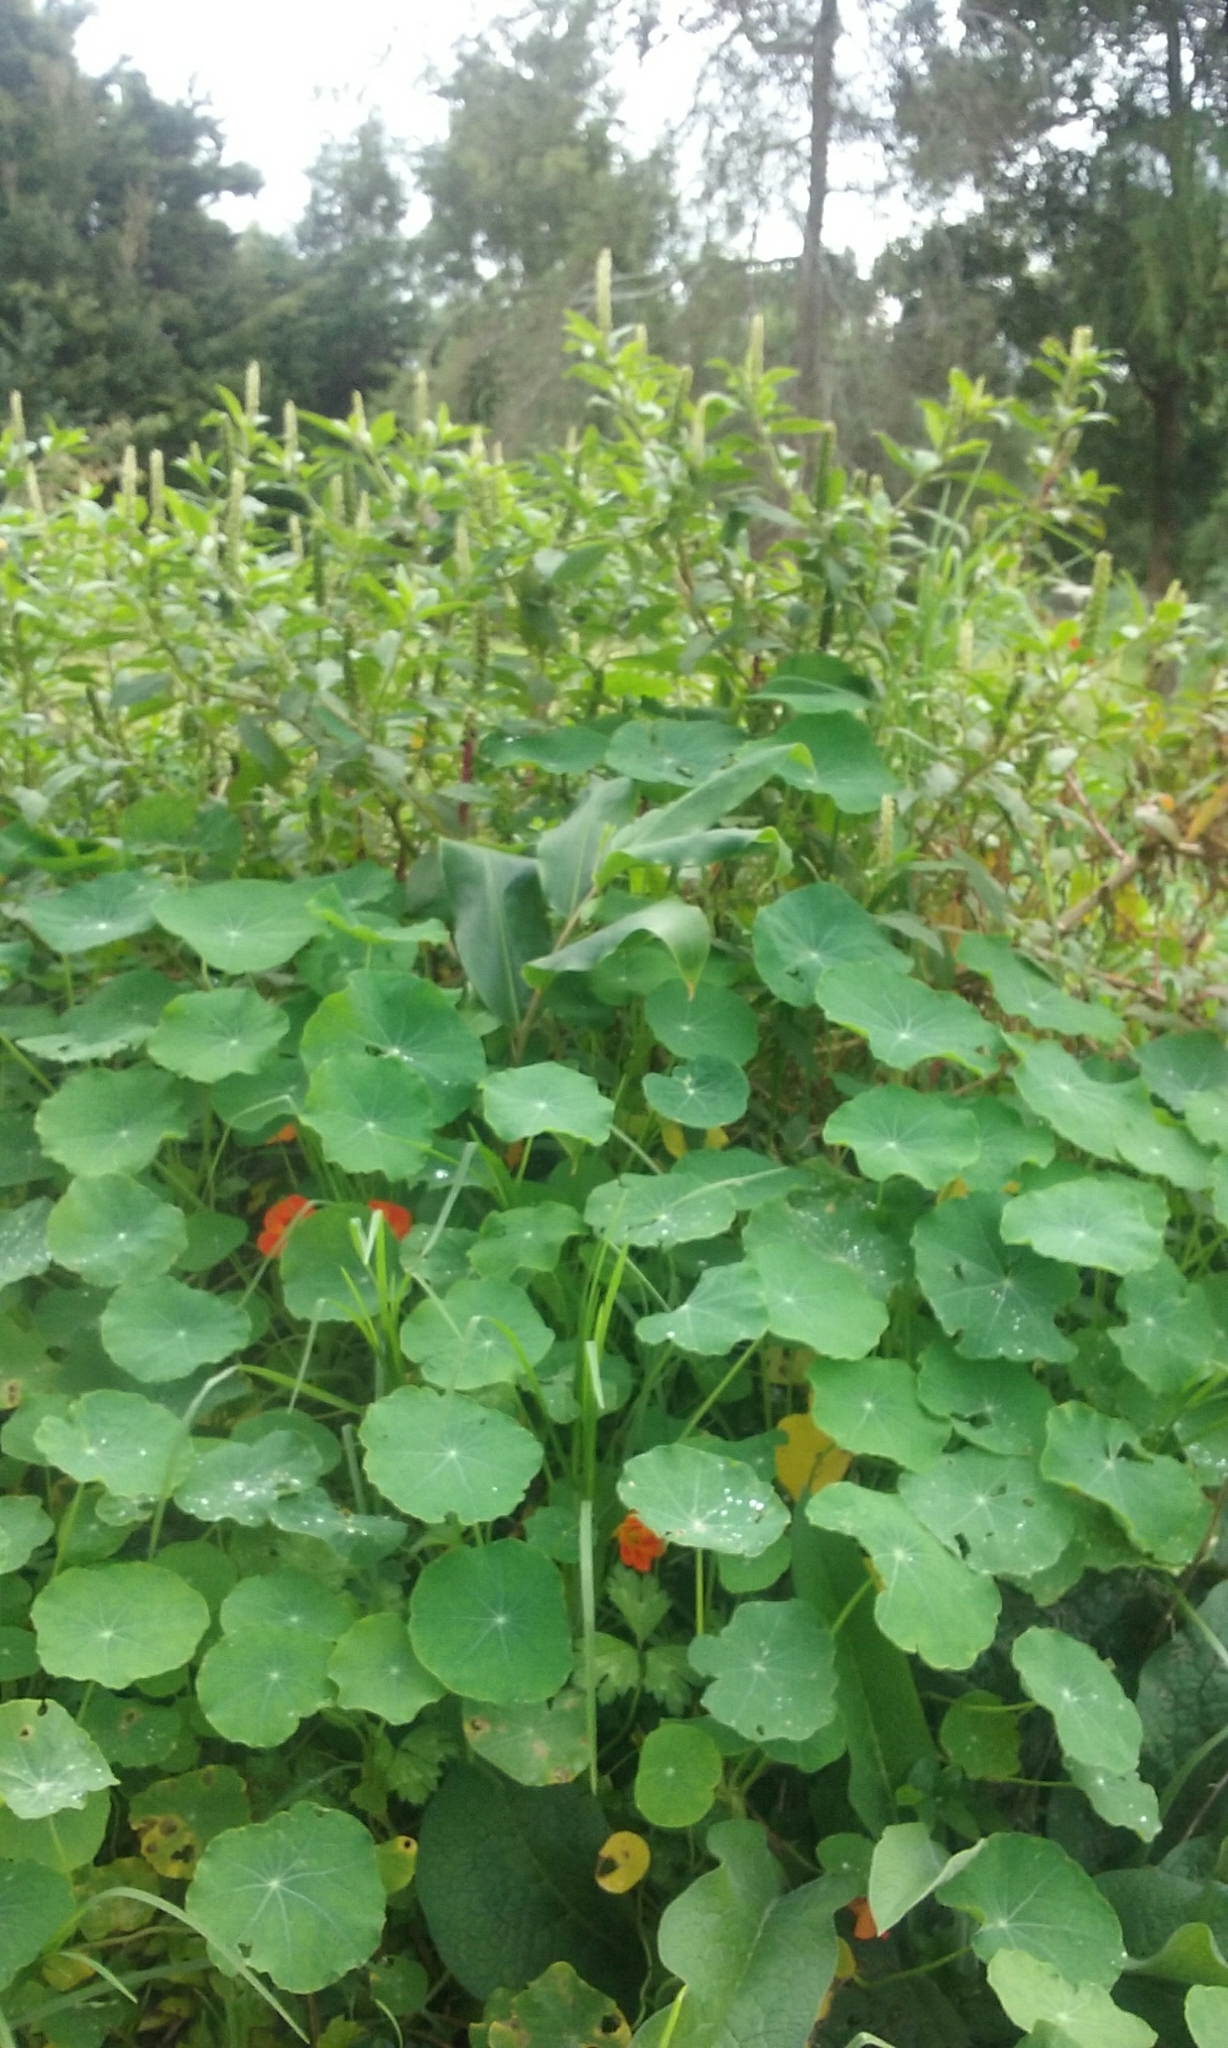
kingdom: Plantae
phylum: Tracheophyta
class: Magnoliopsida
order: Brassicales
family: Tropaeolaceae
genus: Tropaeolum
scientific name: Tropaeolum majus
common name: Nasturtium
